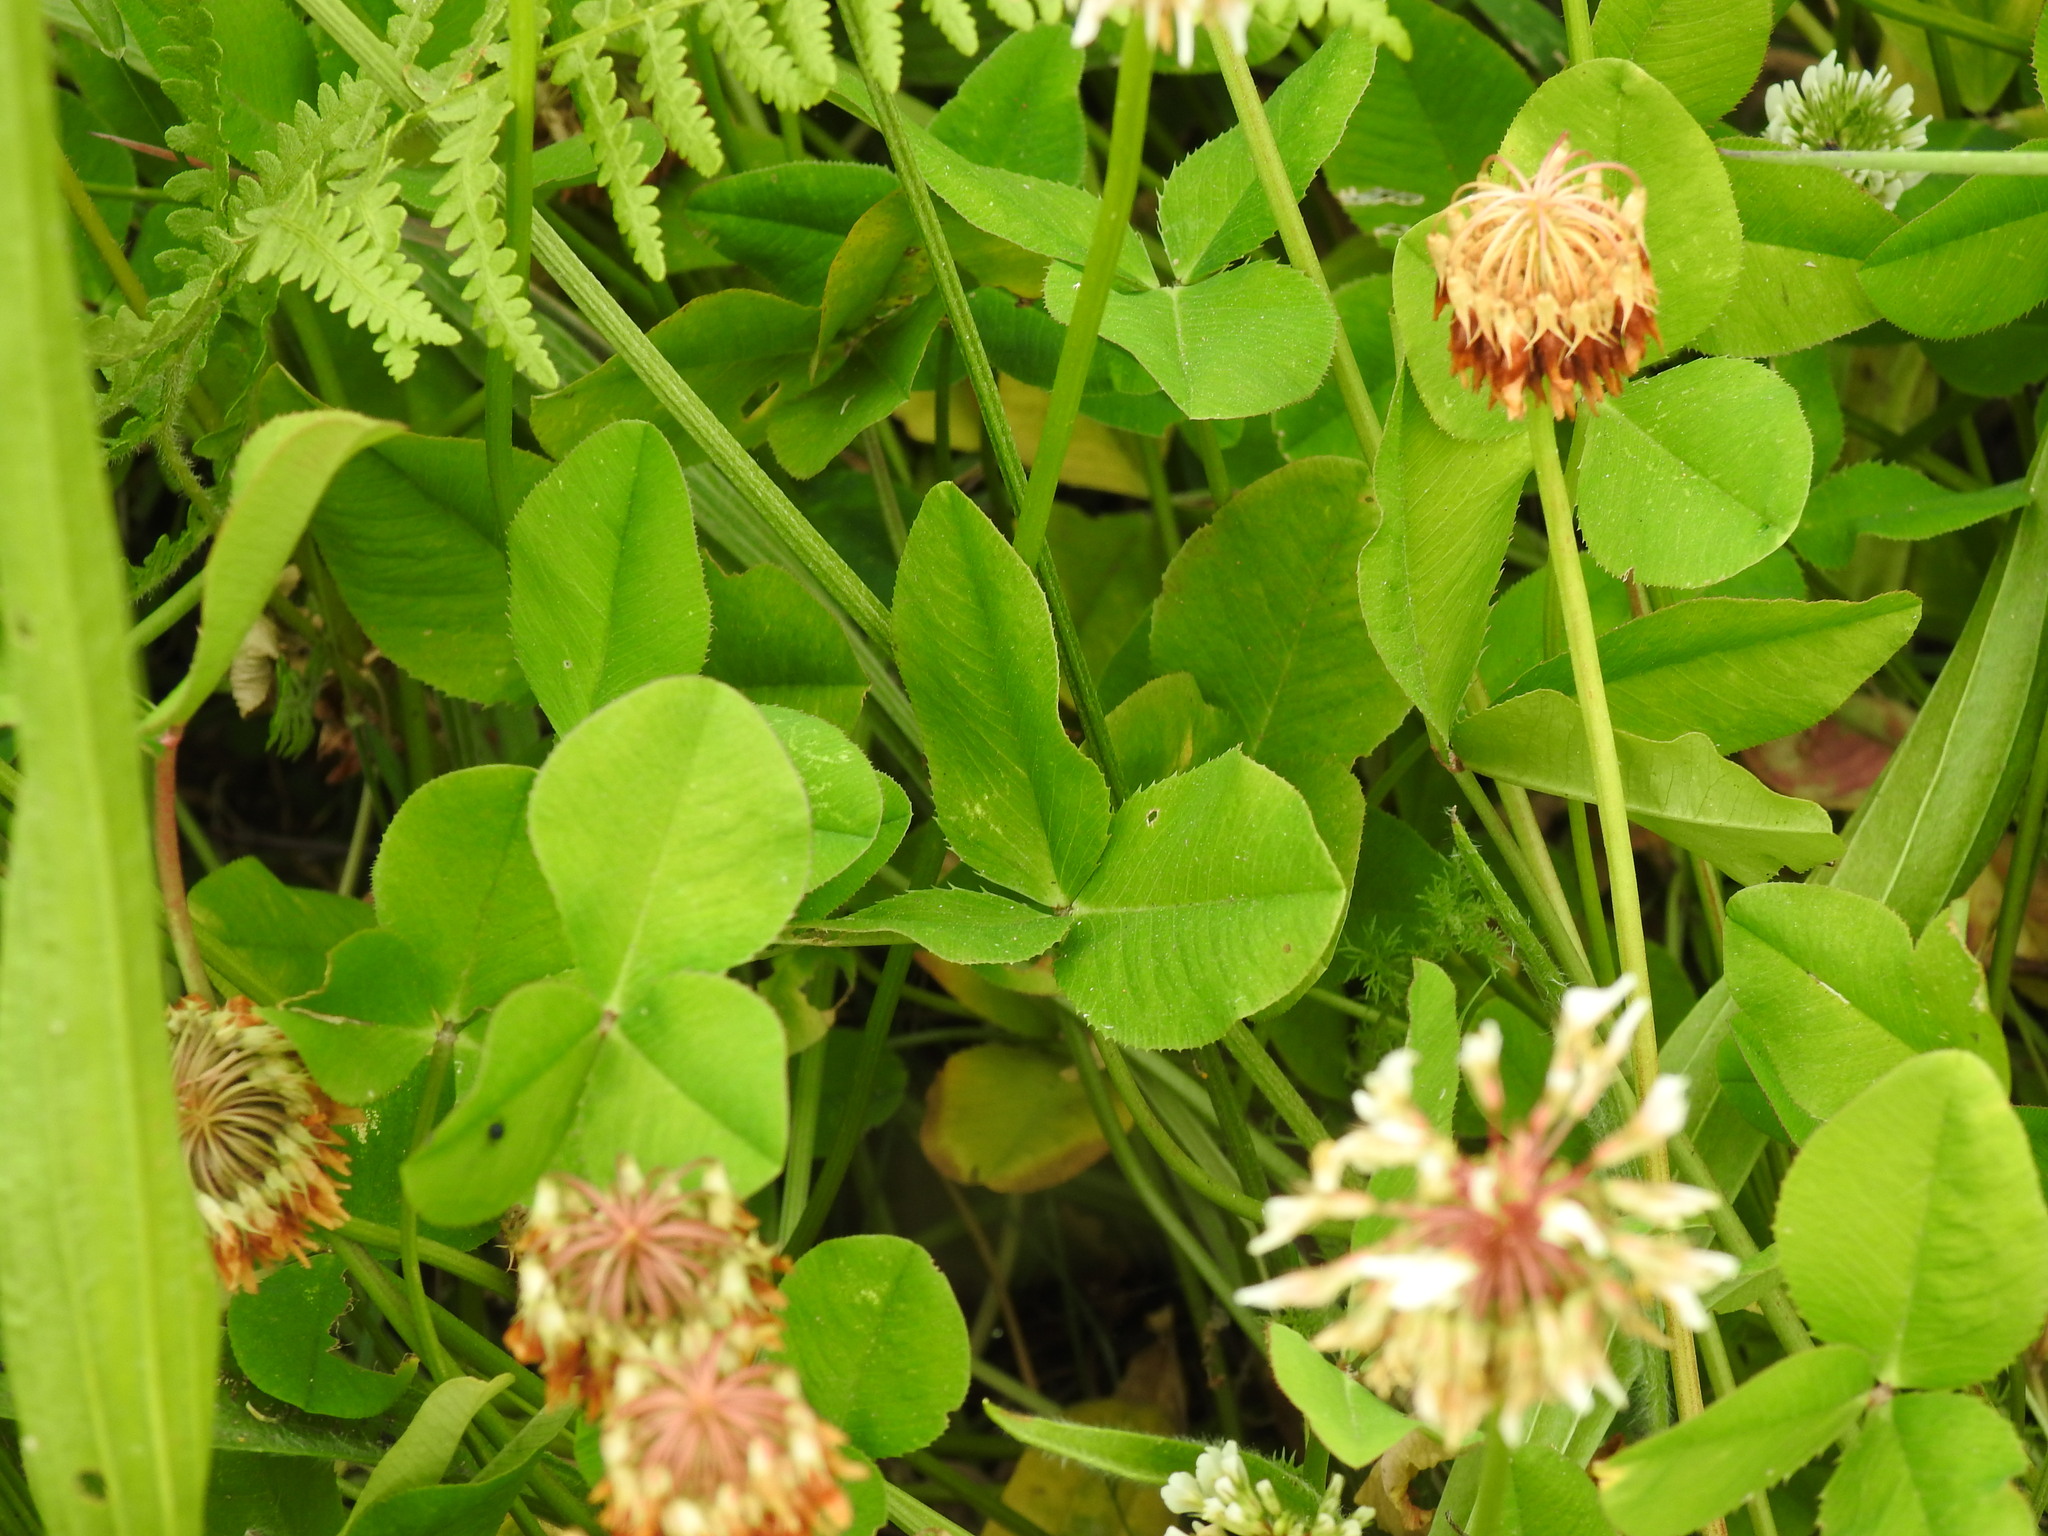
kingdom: Plantae
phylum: Tracheophyta
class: Magnoliopsida
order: Fabales
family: Fabaceae
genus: Trifolium
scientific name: Trifolium repens
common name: White clover
